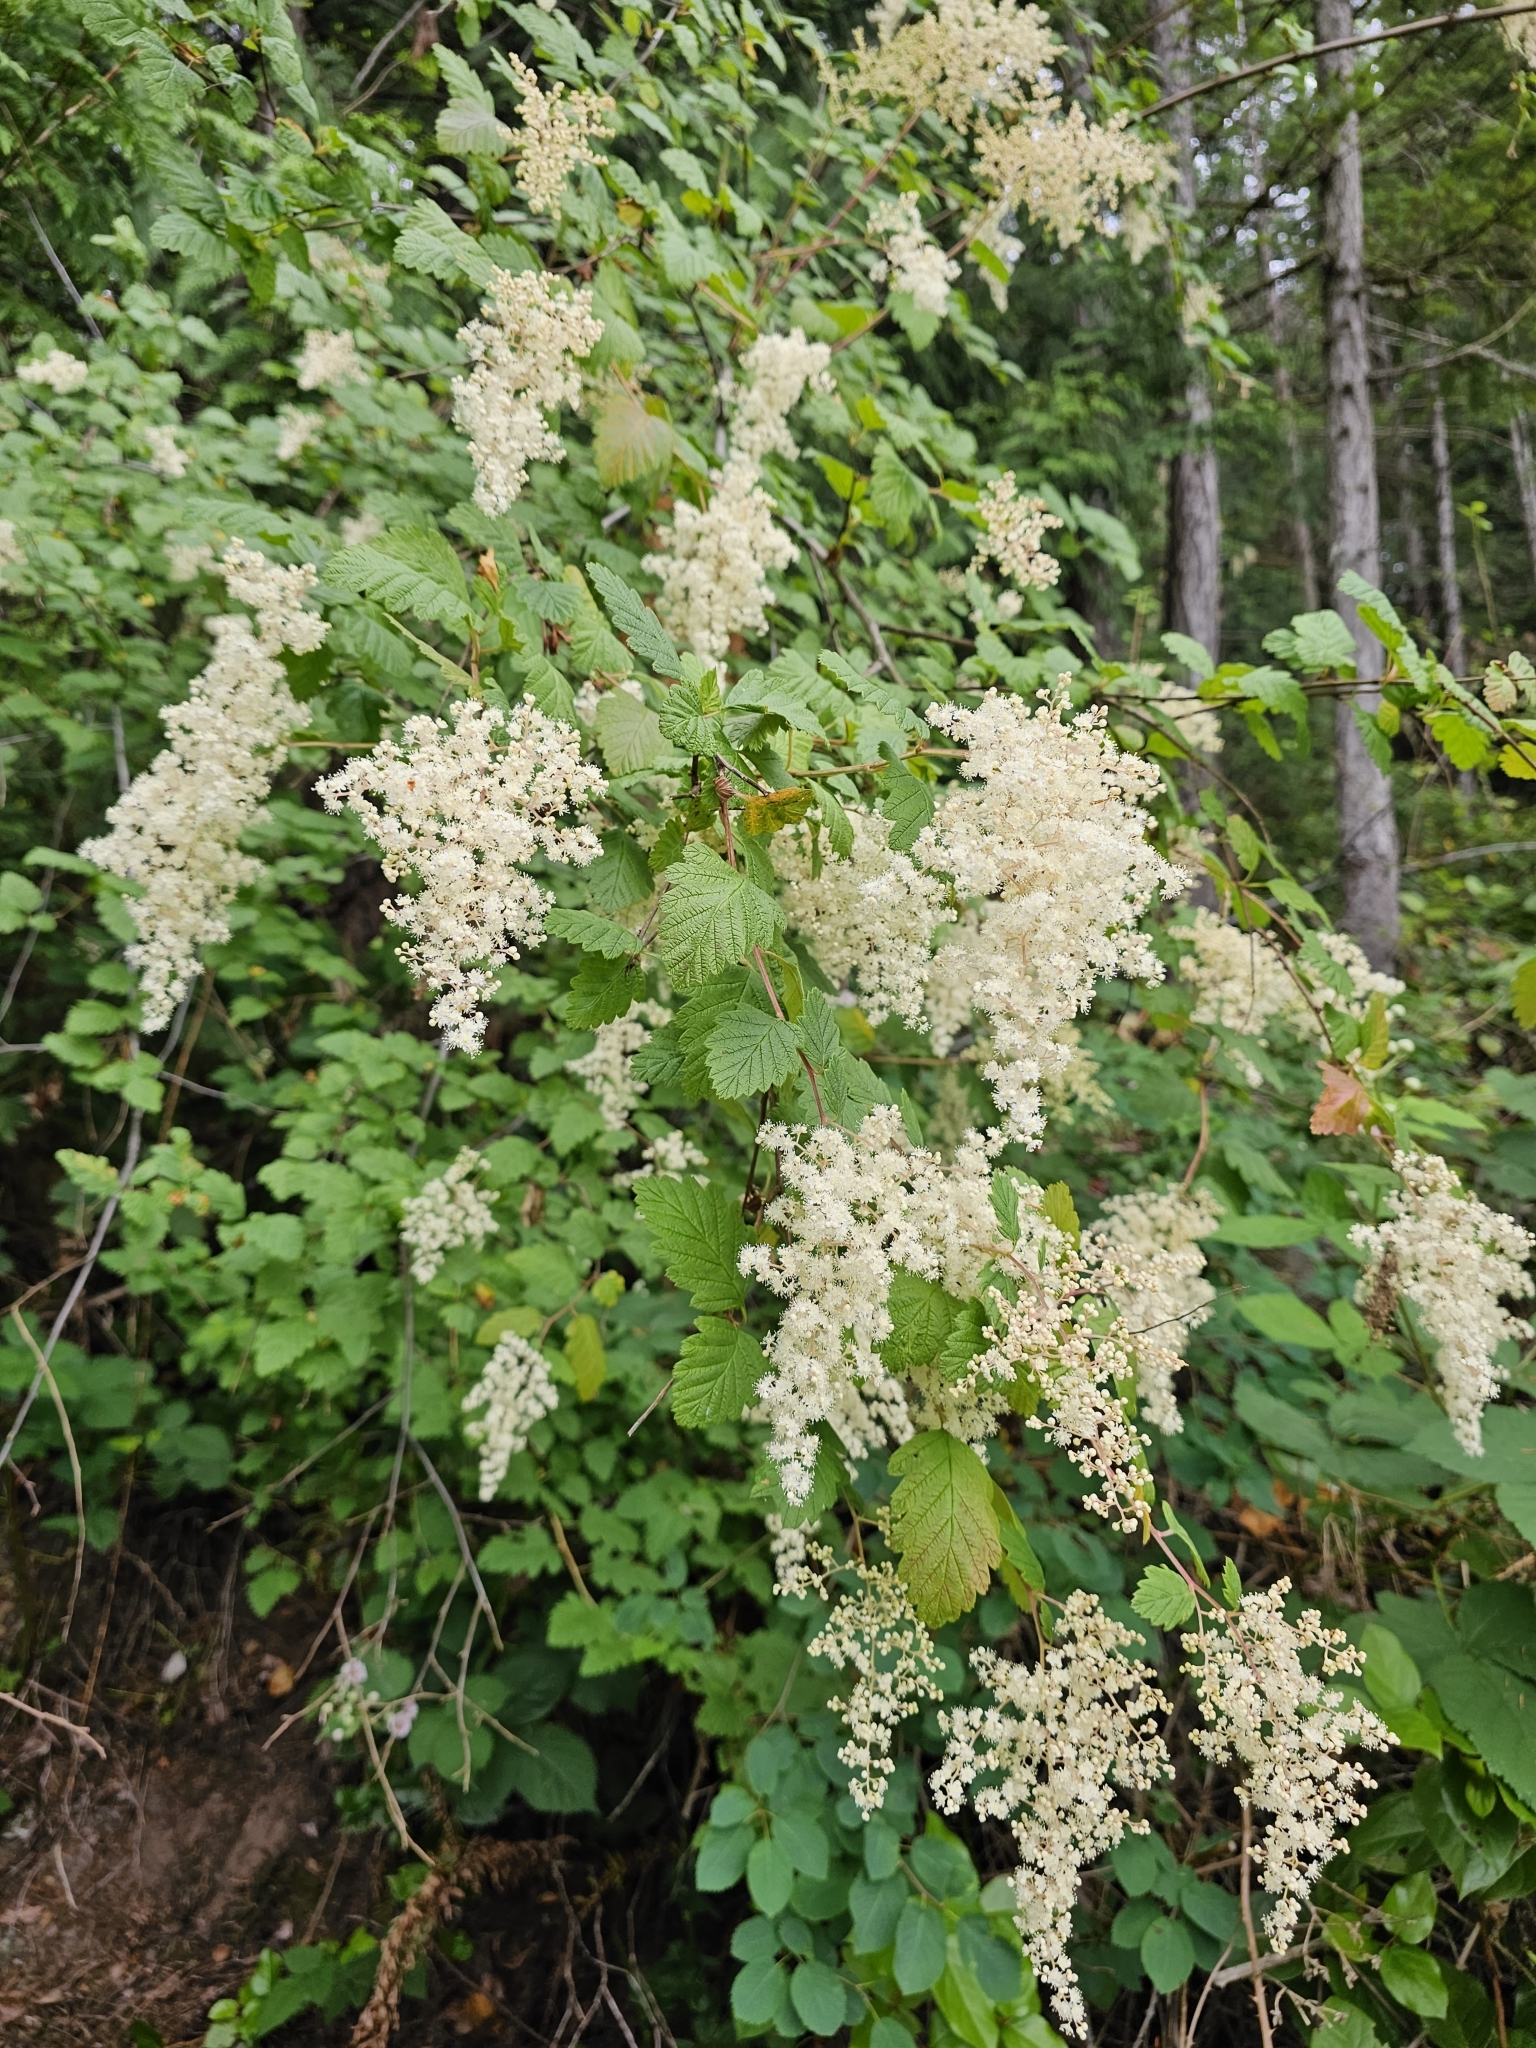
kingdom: Plantae
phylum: Tracheophyta
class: Magnoliopsida
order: Rosales
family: Rosaceae
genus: Holodiscus
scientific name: Holodiscus discolor
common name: Oceanspray
